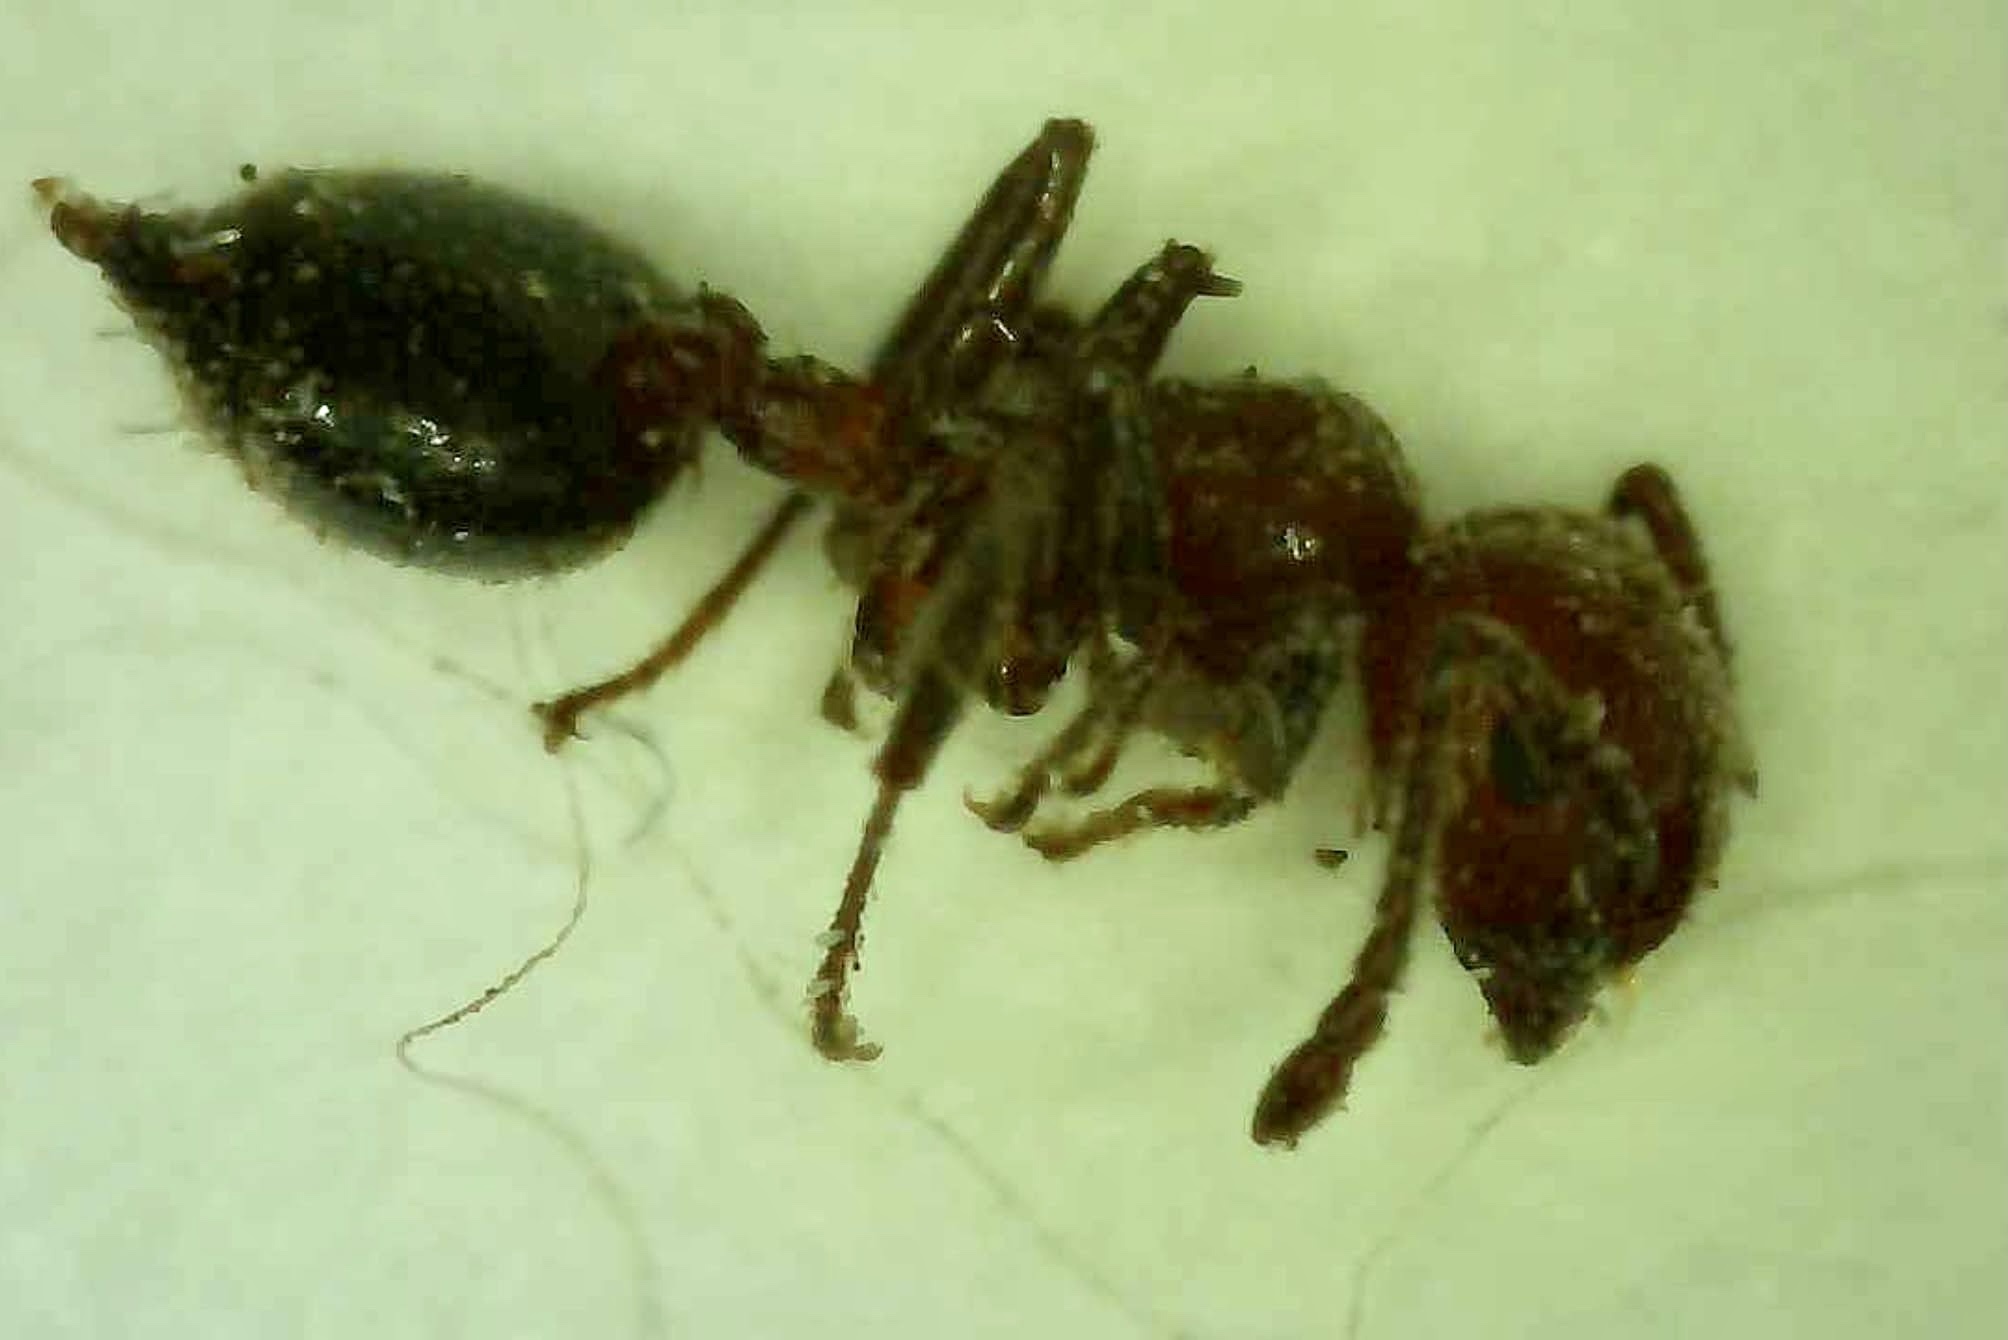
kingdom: Animalia
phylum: Arthropoda
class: Insecta
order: Hymenoptera
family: Formicidae
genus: Crematogaster
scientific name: Crematogaster laeviuscula
